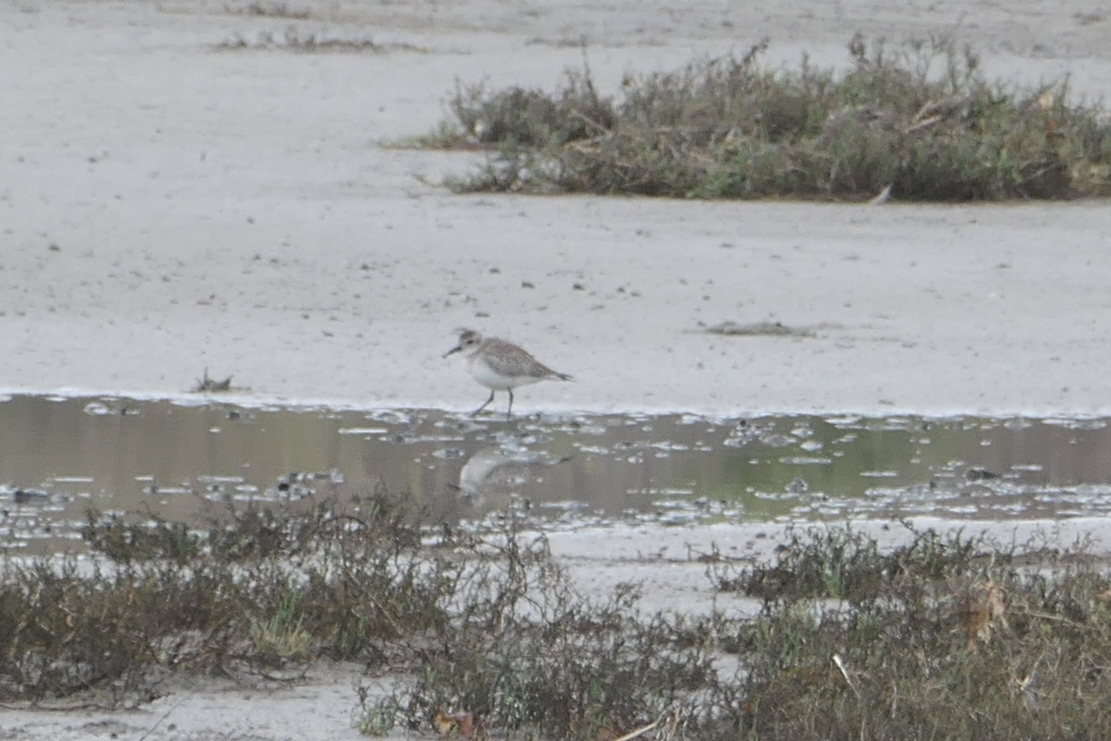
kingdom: Animalia
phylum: Chordata
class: Aves
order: Charadriiformes
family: Charadriidae
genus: Pluvialis
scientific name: Pluvialis squatarola
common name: Grey plover
